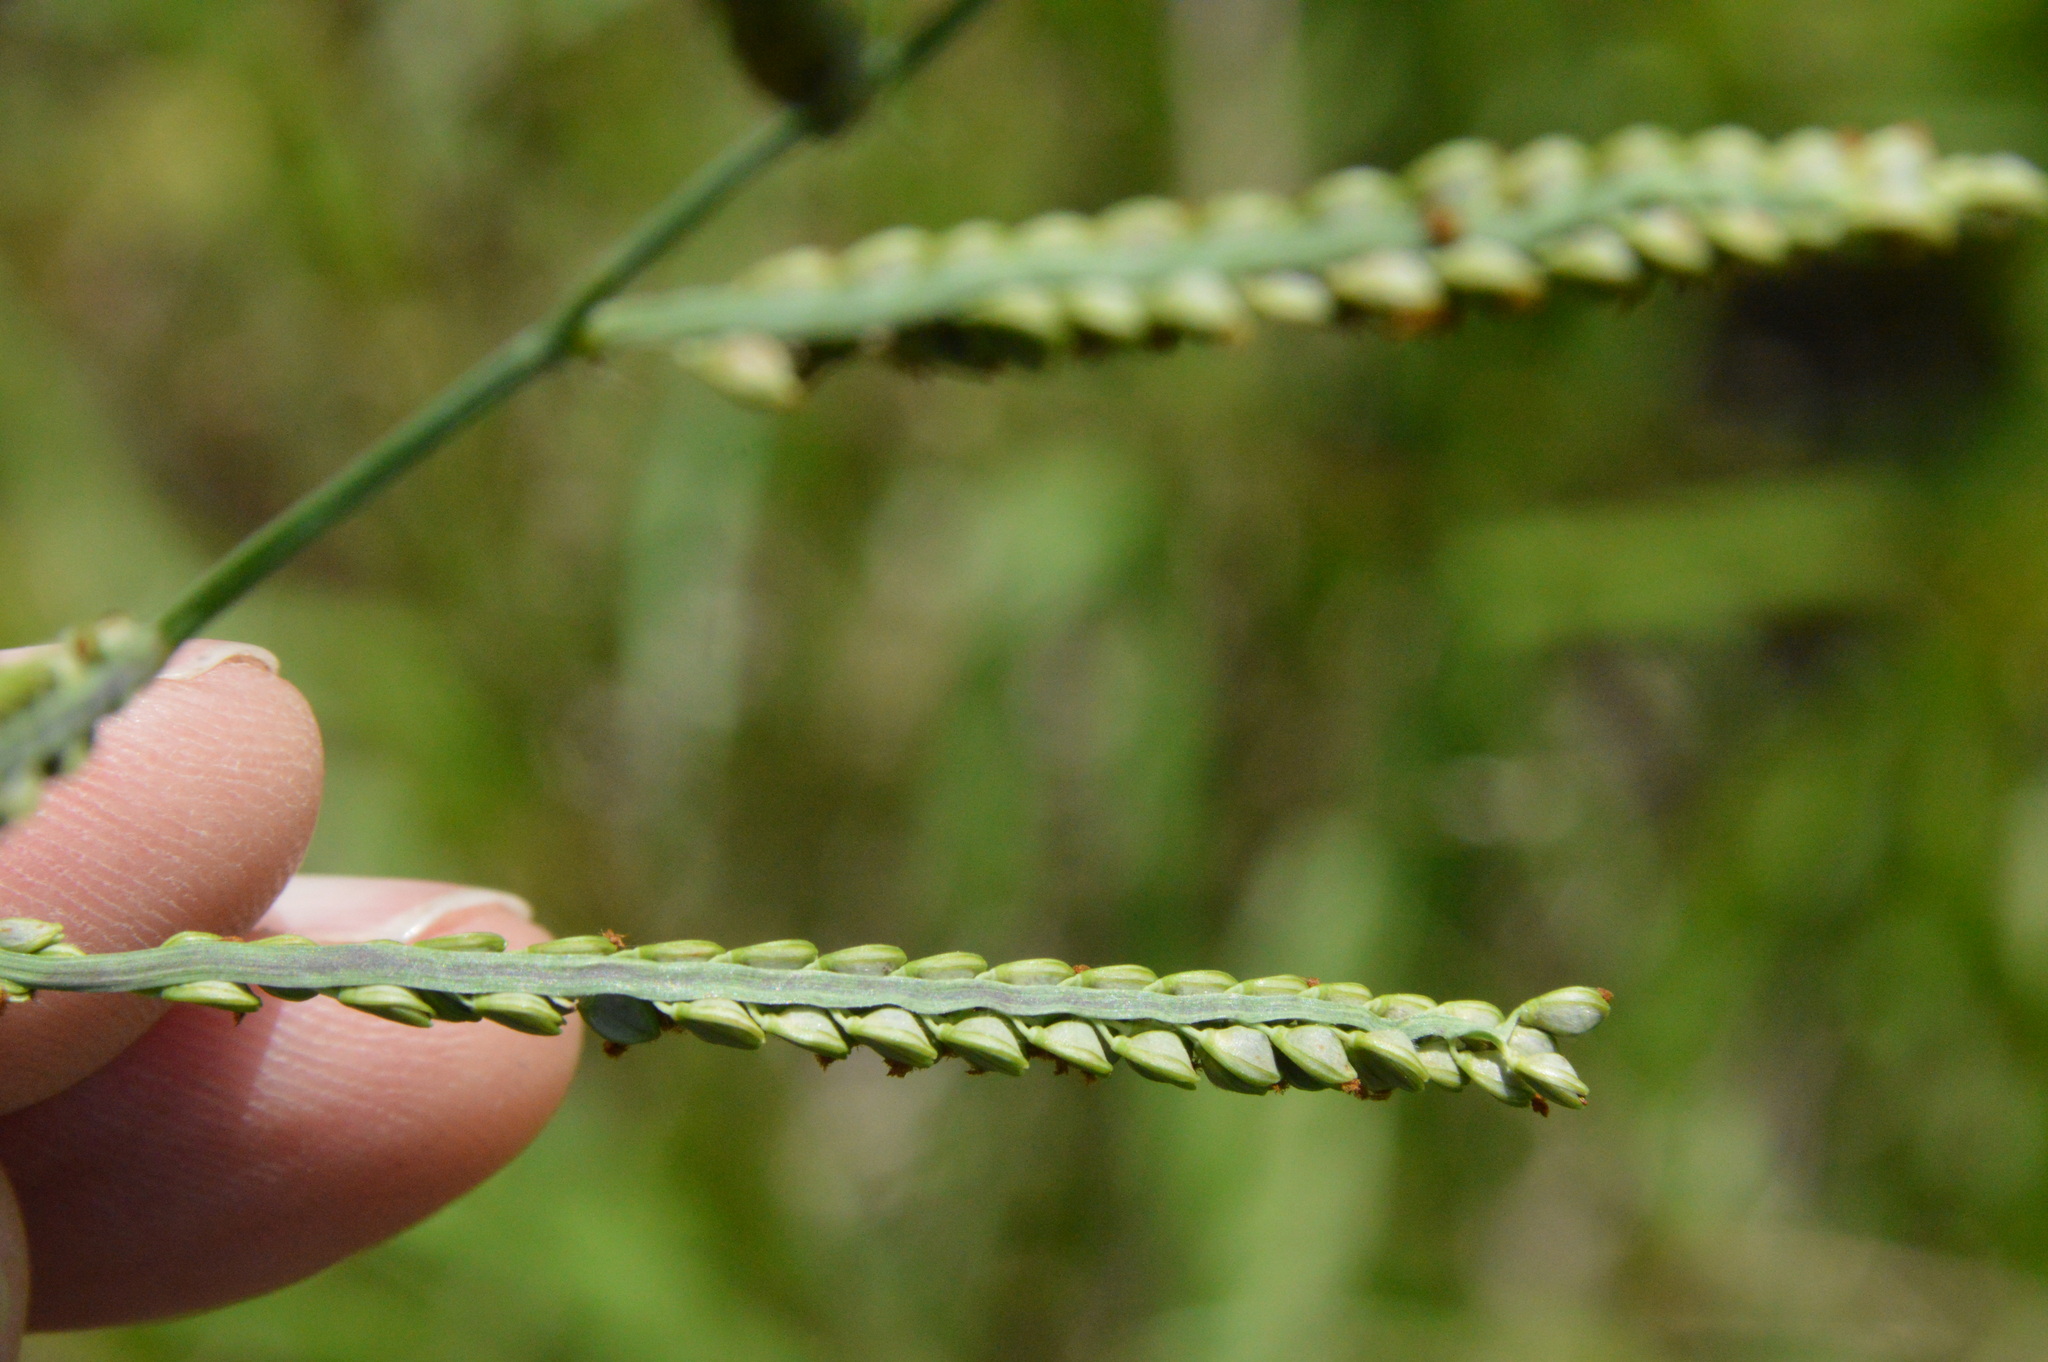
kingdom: Plantae
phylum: Tracheophyta
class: Liliopsida
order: Poales
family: Poaceae
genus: Paspalum
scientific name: Paspalum plicatulum
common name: Top paspalum
